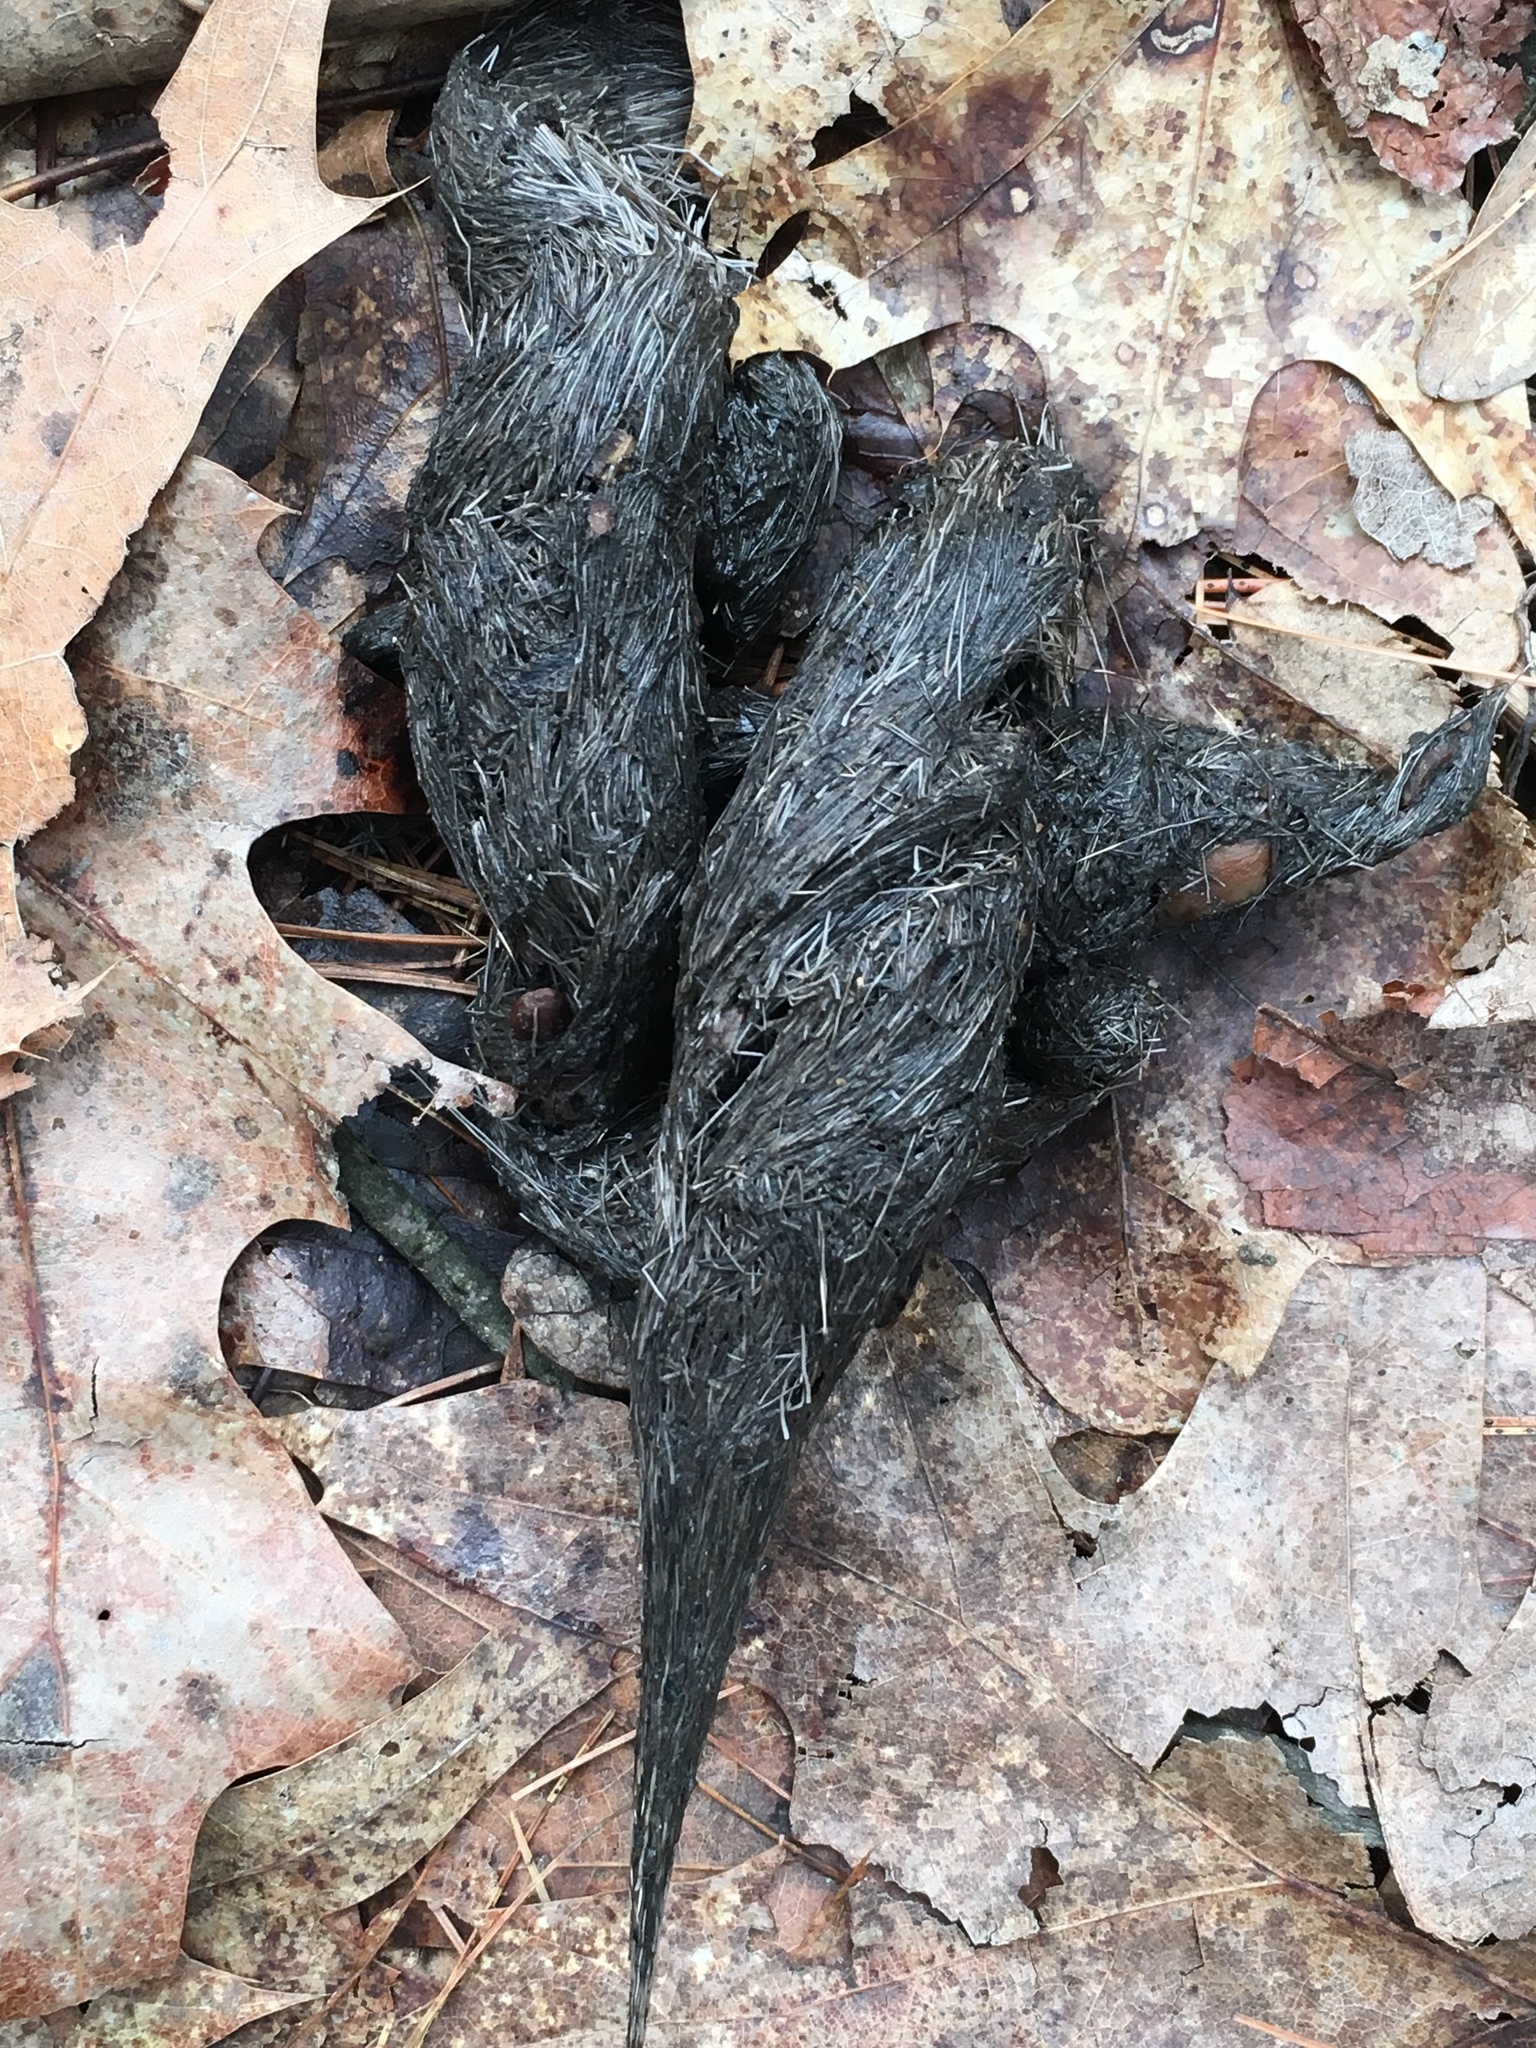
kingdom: Animalia
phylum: Chordata
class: Mammalia
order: Carnivora
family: Canidae
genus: Canis
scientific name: Canis latrans
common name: Coyote
